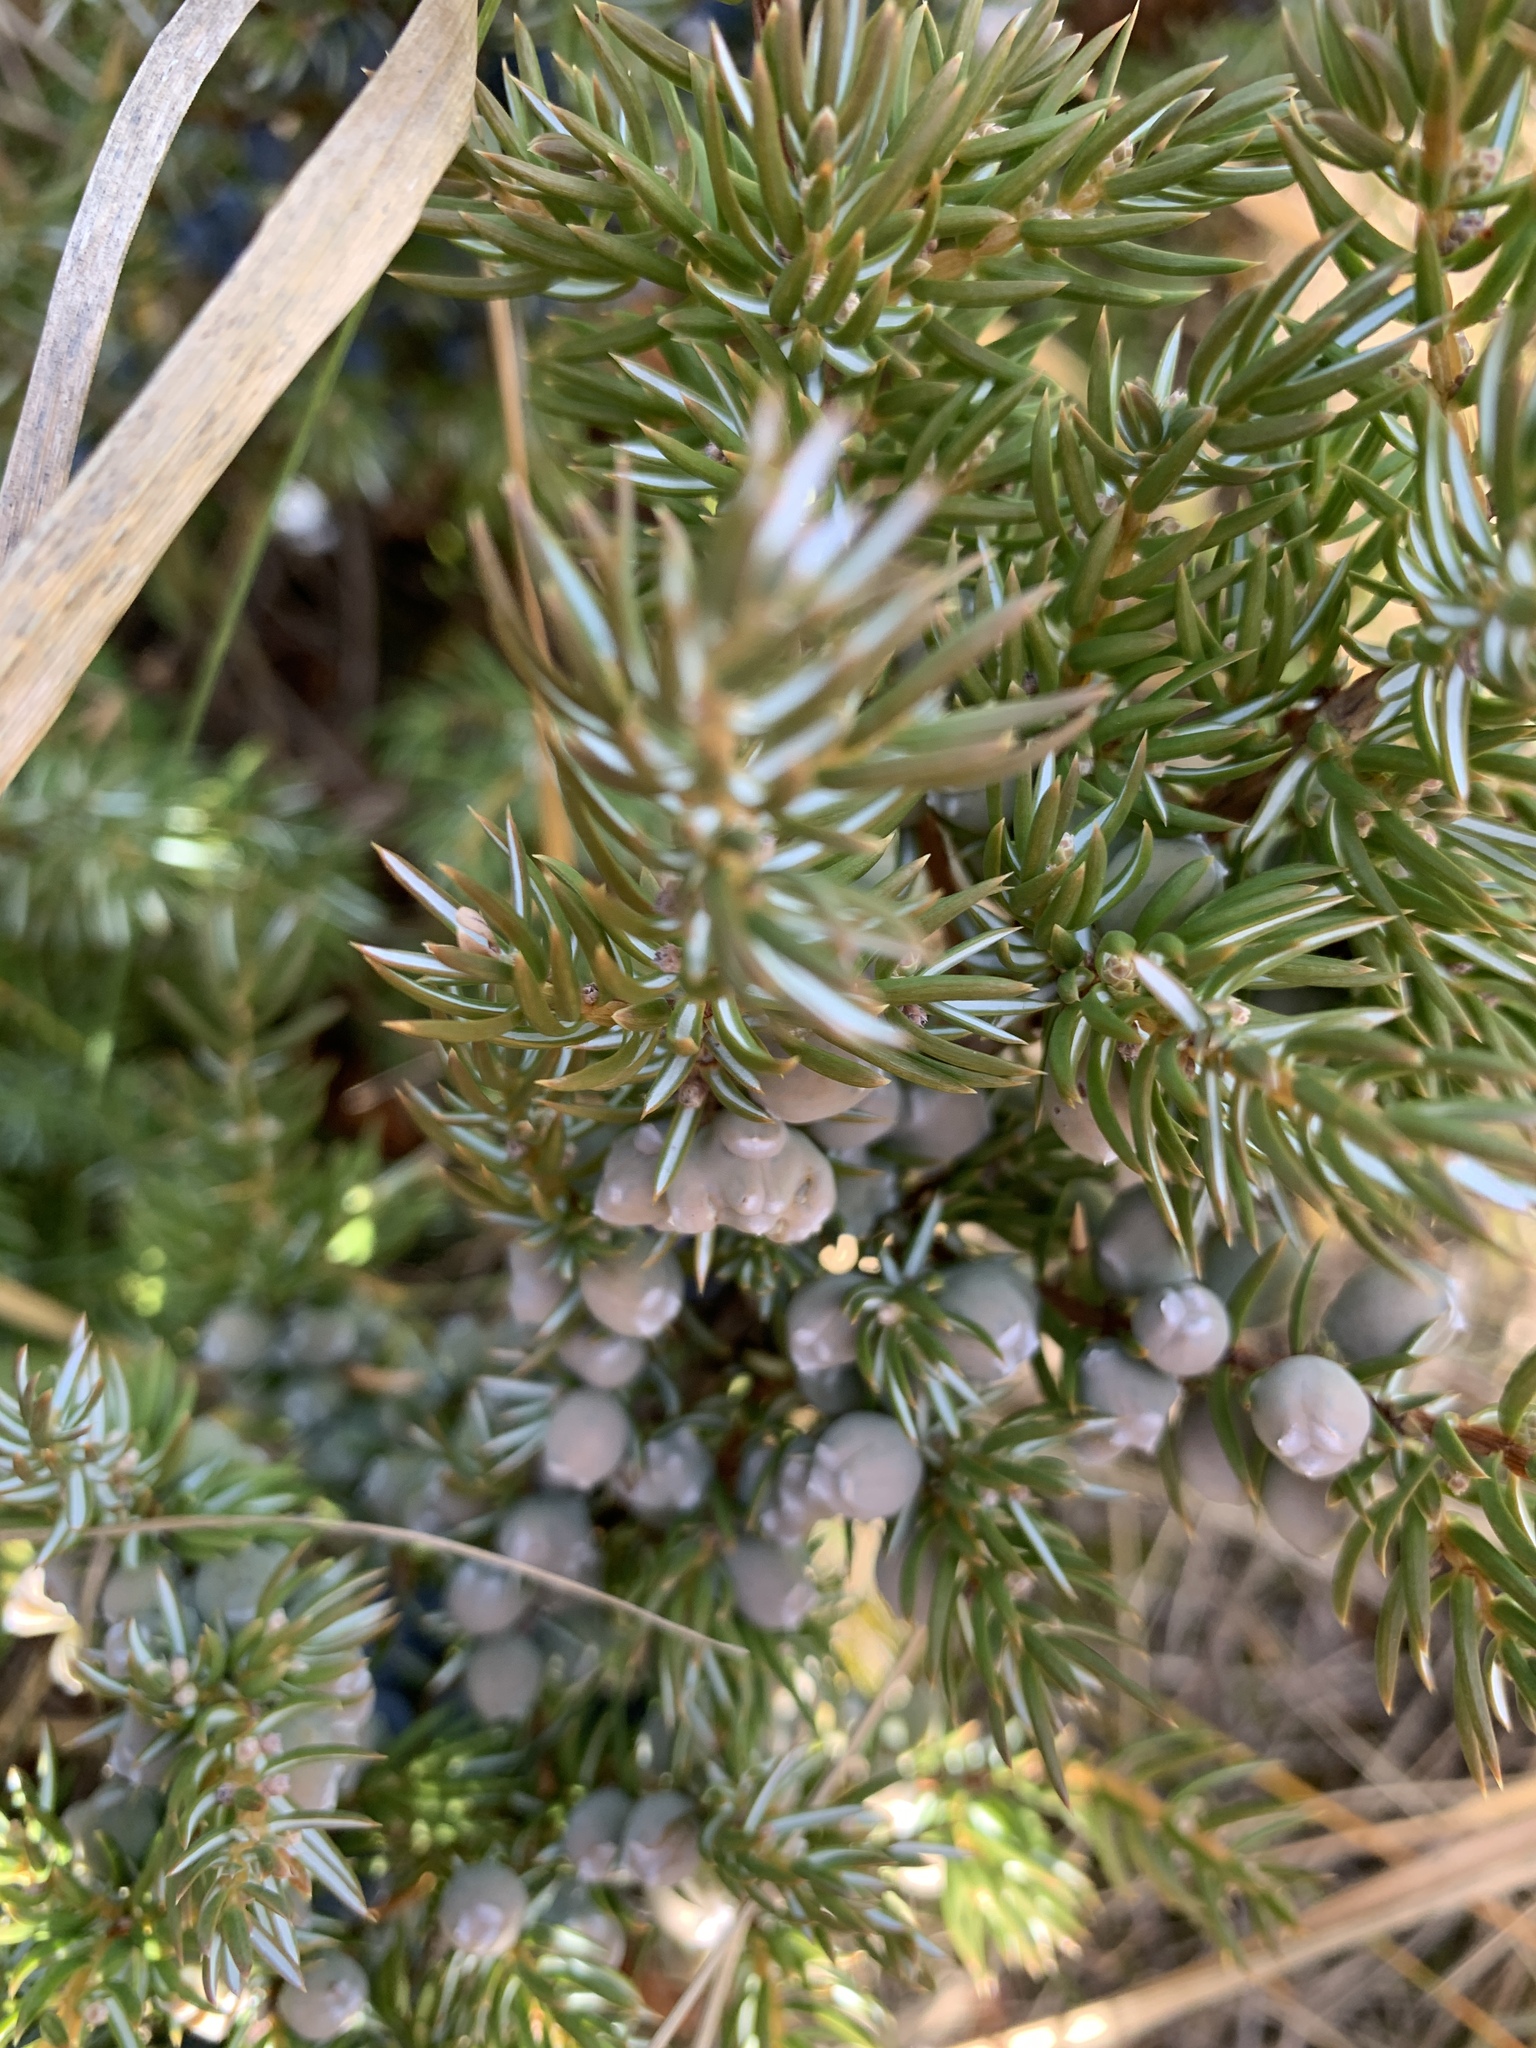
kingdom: Plantae
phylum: Tracheophyta
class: Pinopsida
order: Pinales
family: Cupressaceae
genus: Juniperus
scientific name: Juniperus communis
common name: Common juniper
